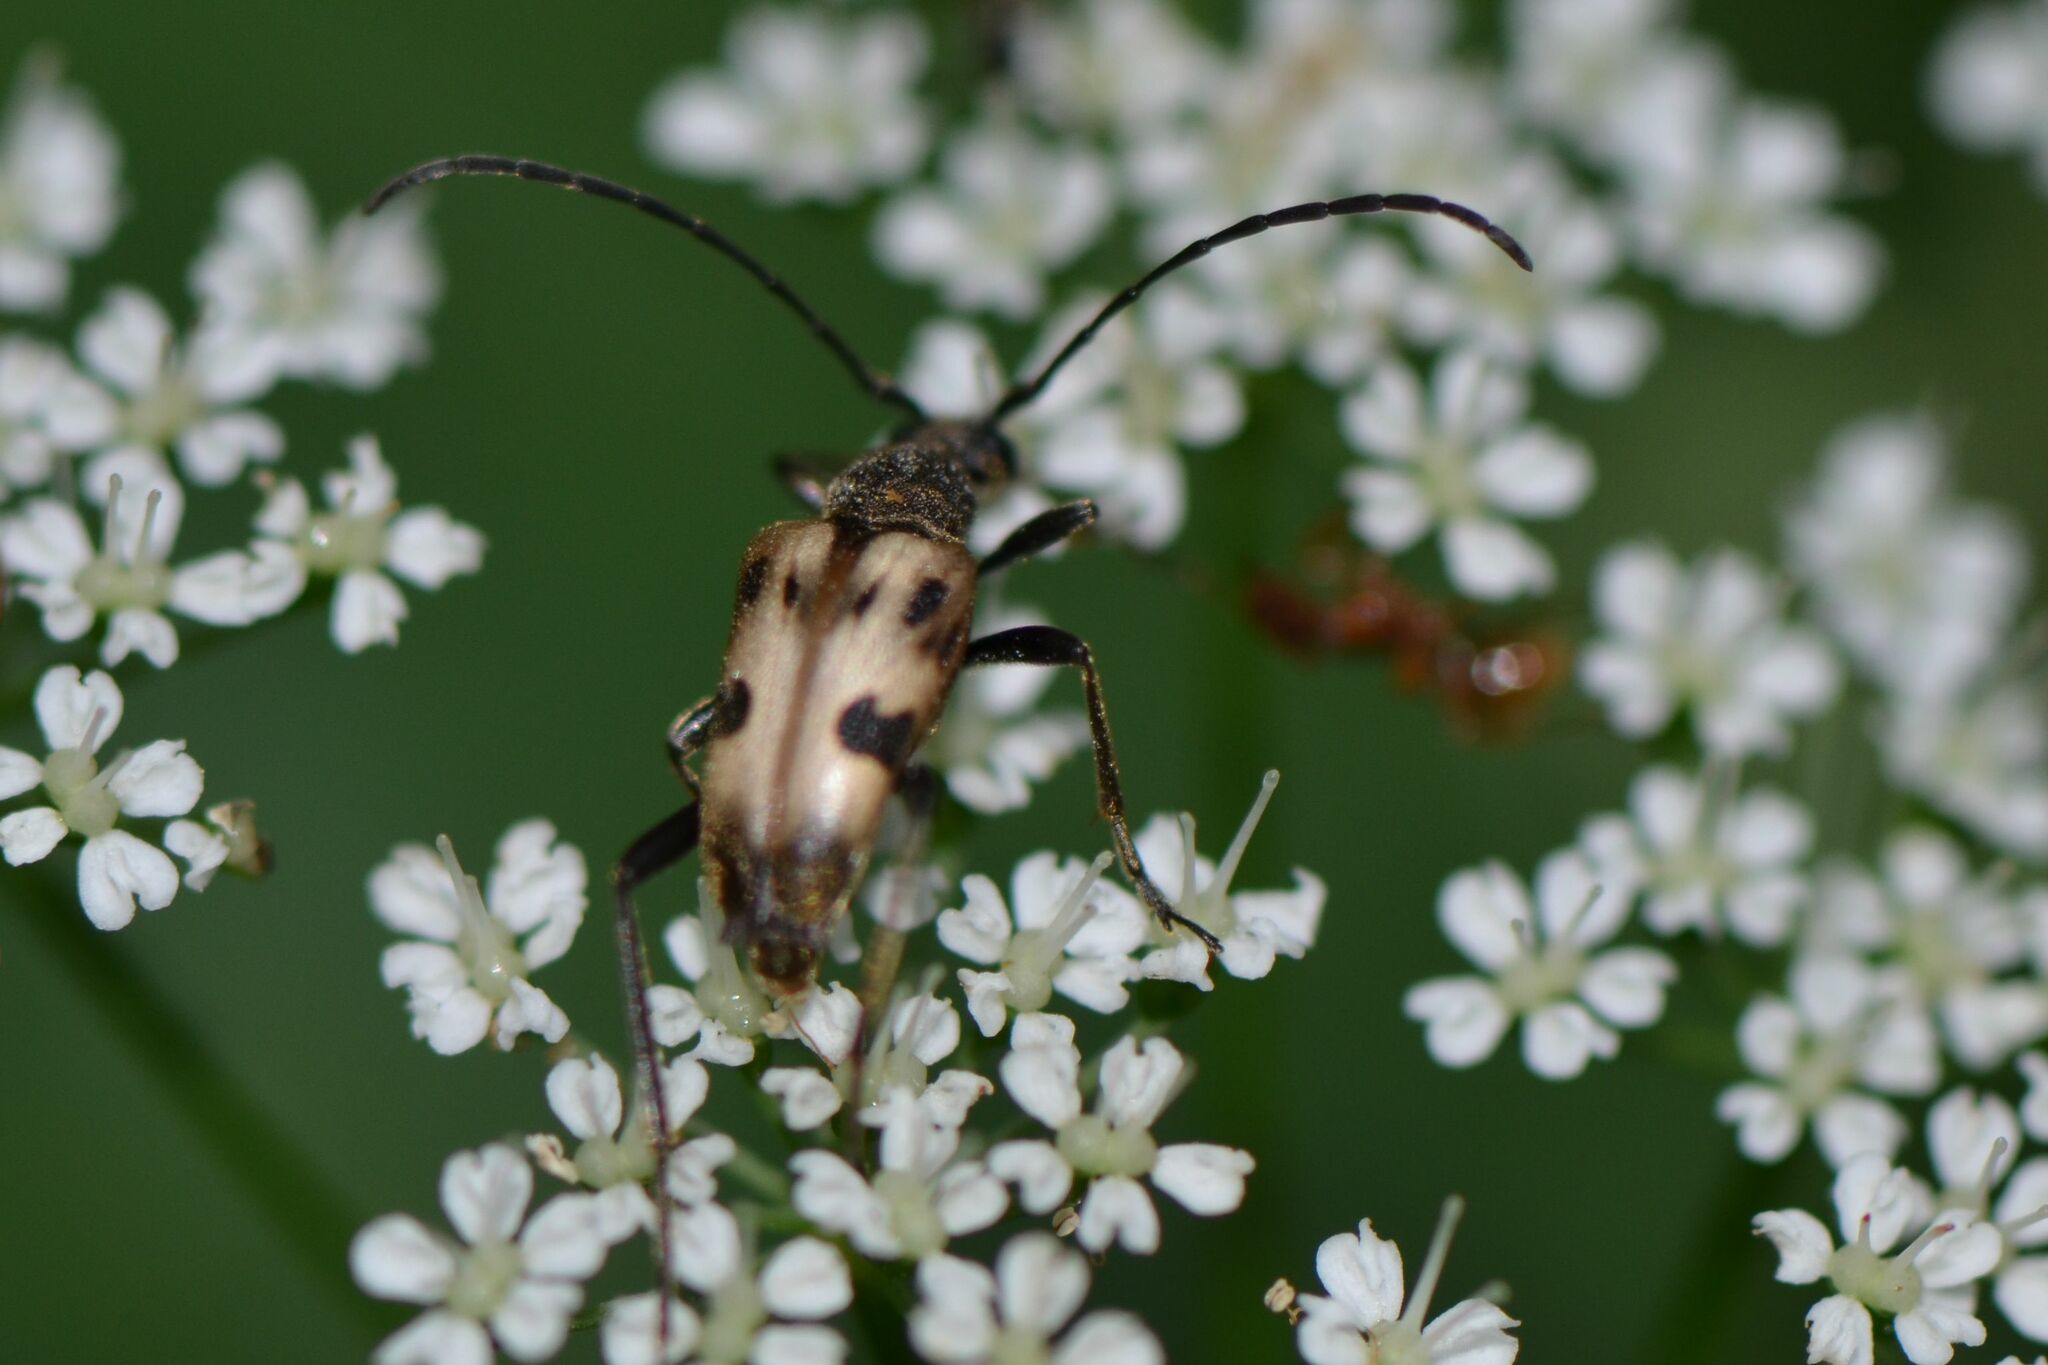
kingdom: Animalia
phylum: Arthropoda
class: Insecta
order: Coleoptera
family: Cerambycidae
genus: Pachytodes
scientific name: Pachytodes cerambyciformis
